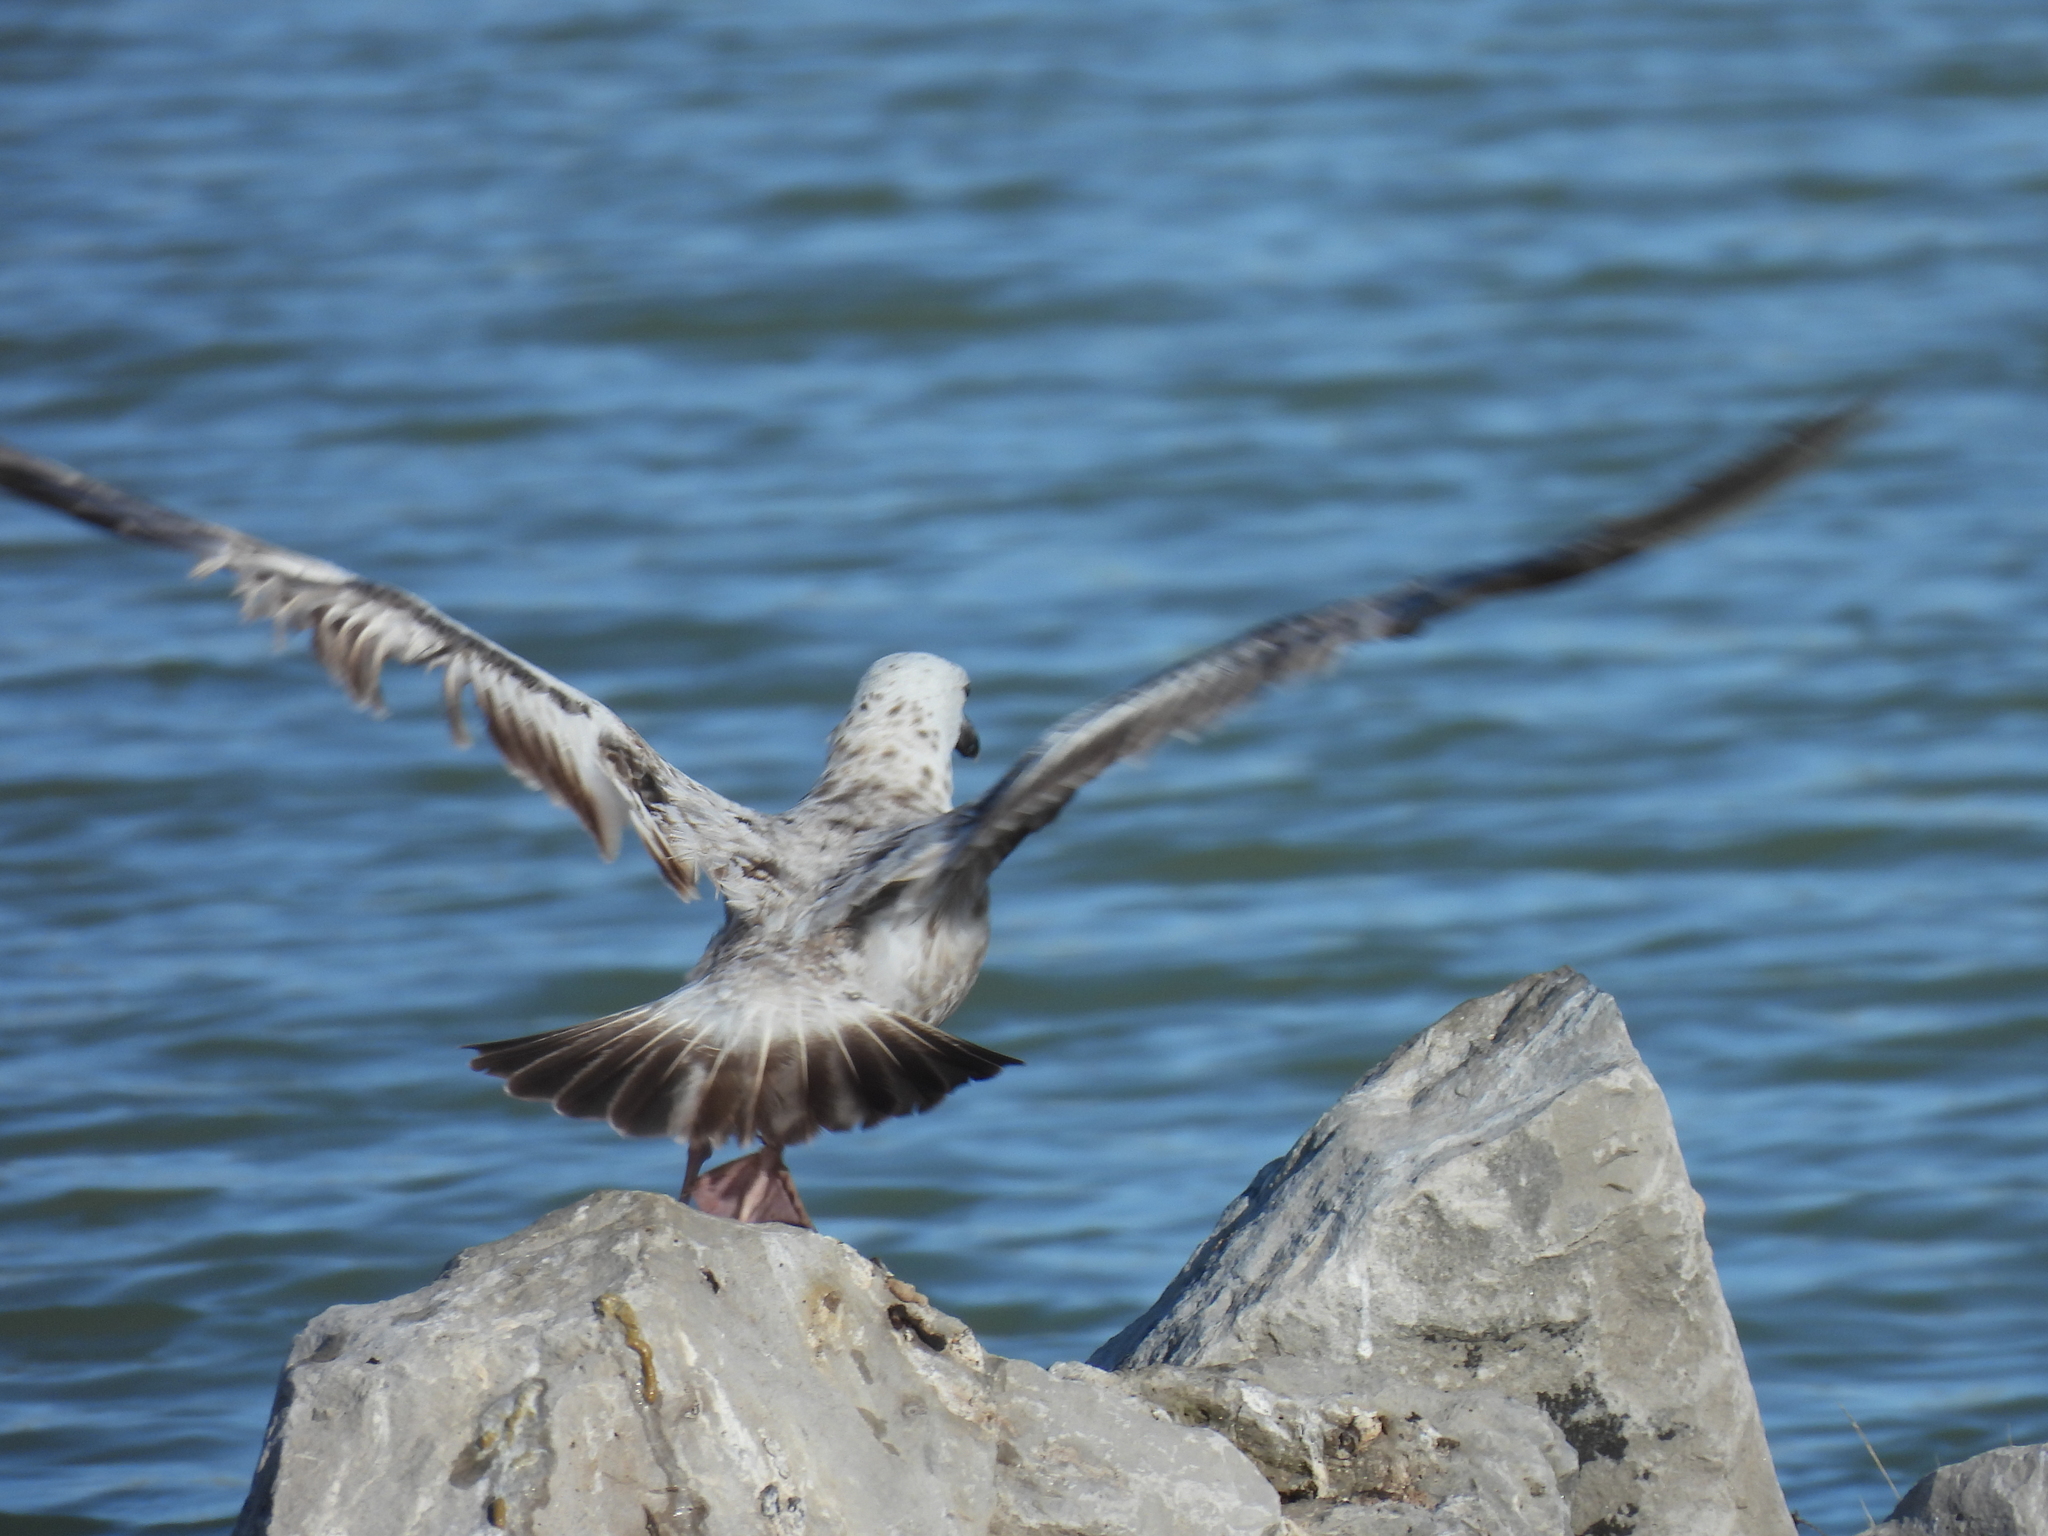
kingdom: Animalia
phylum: Chordata
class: Aves
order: Charadriiformes
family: Laridae
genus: Larus
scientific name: Larus argentatus
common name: Herring gull
